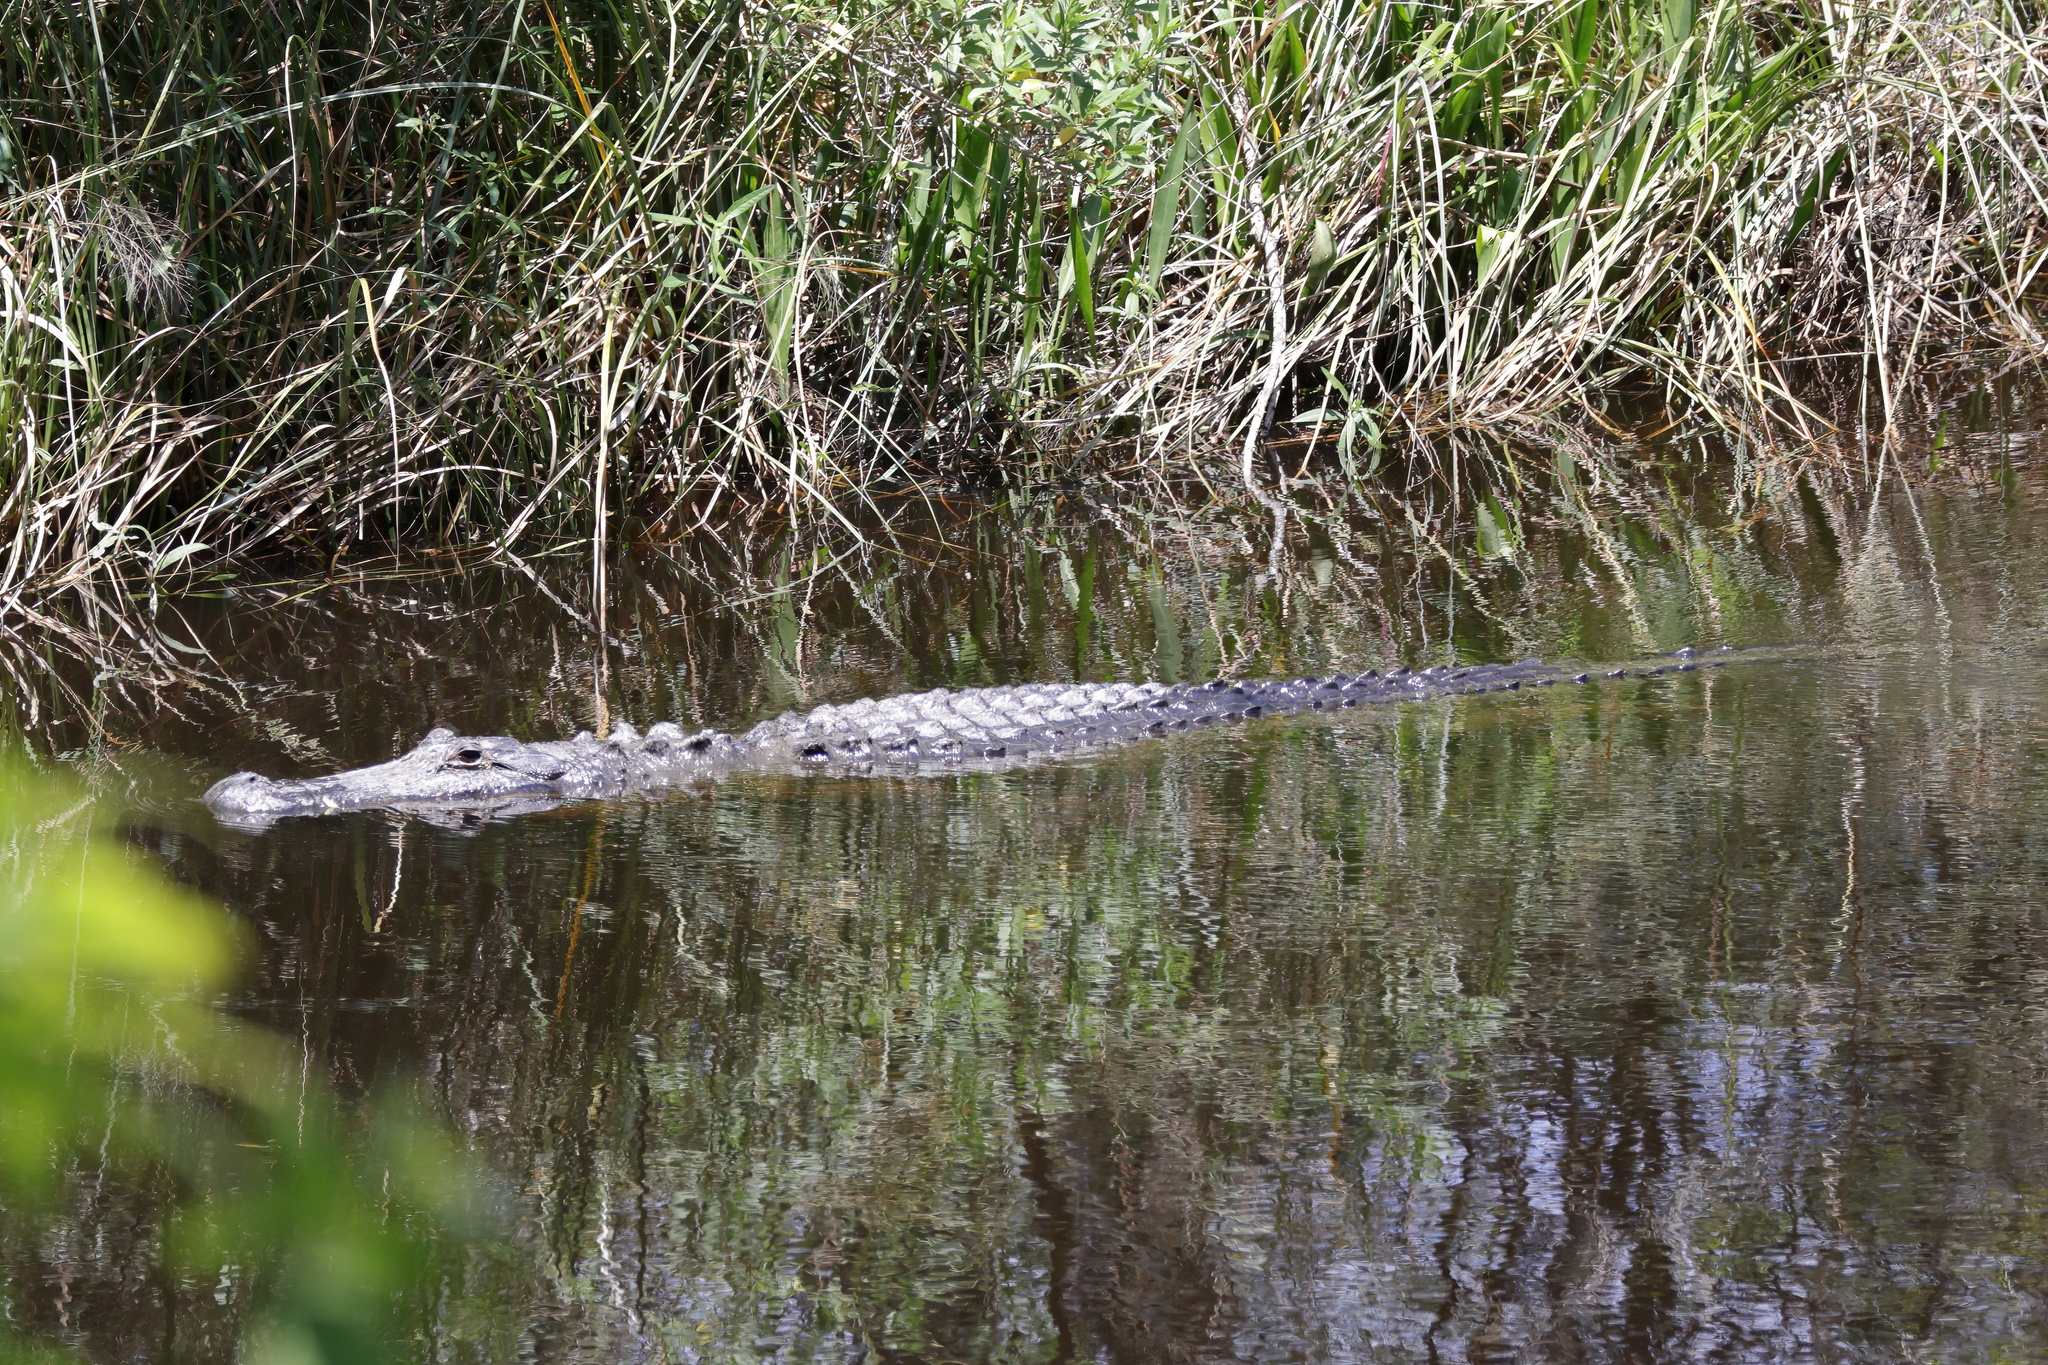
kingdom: Animalia
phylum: Chordata
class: Crocodylia
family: Alligatoridae
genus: Alligator
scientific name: Alligator mississippiensis
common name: American alligator
